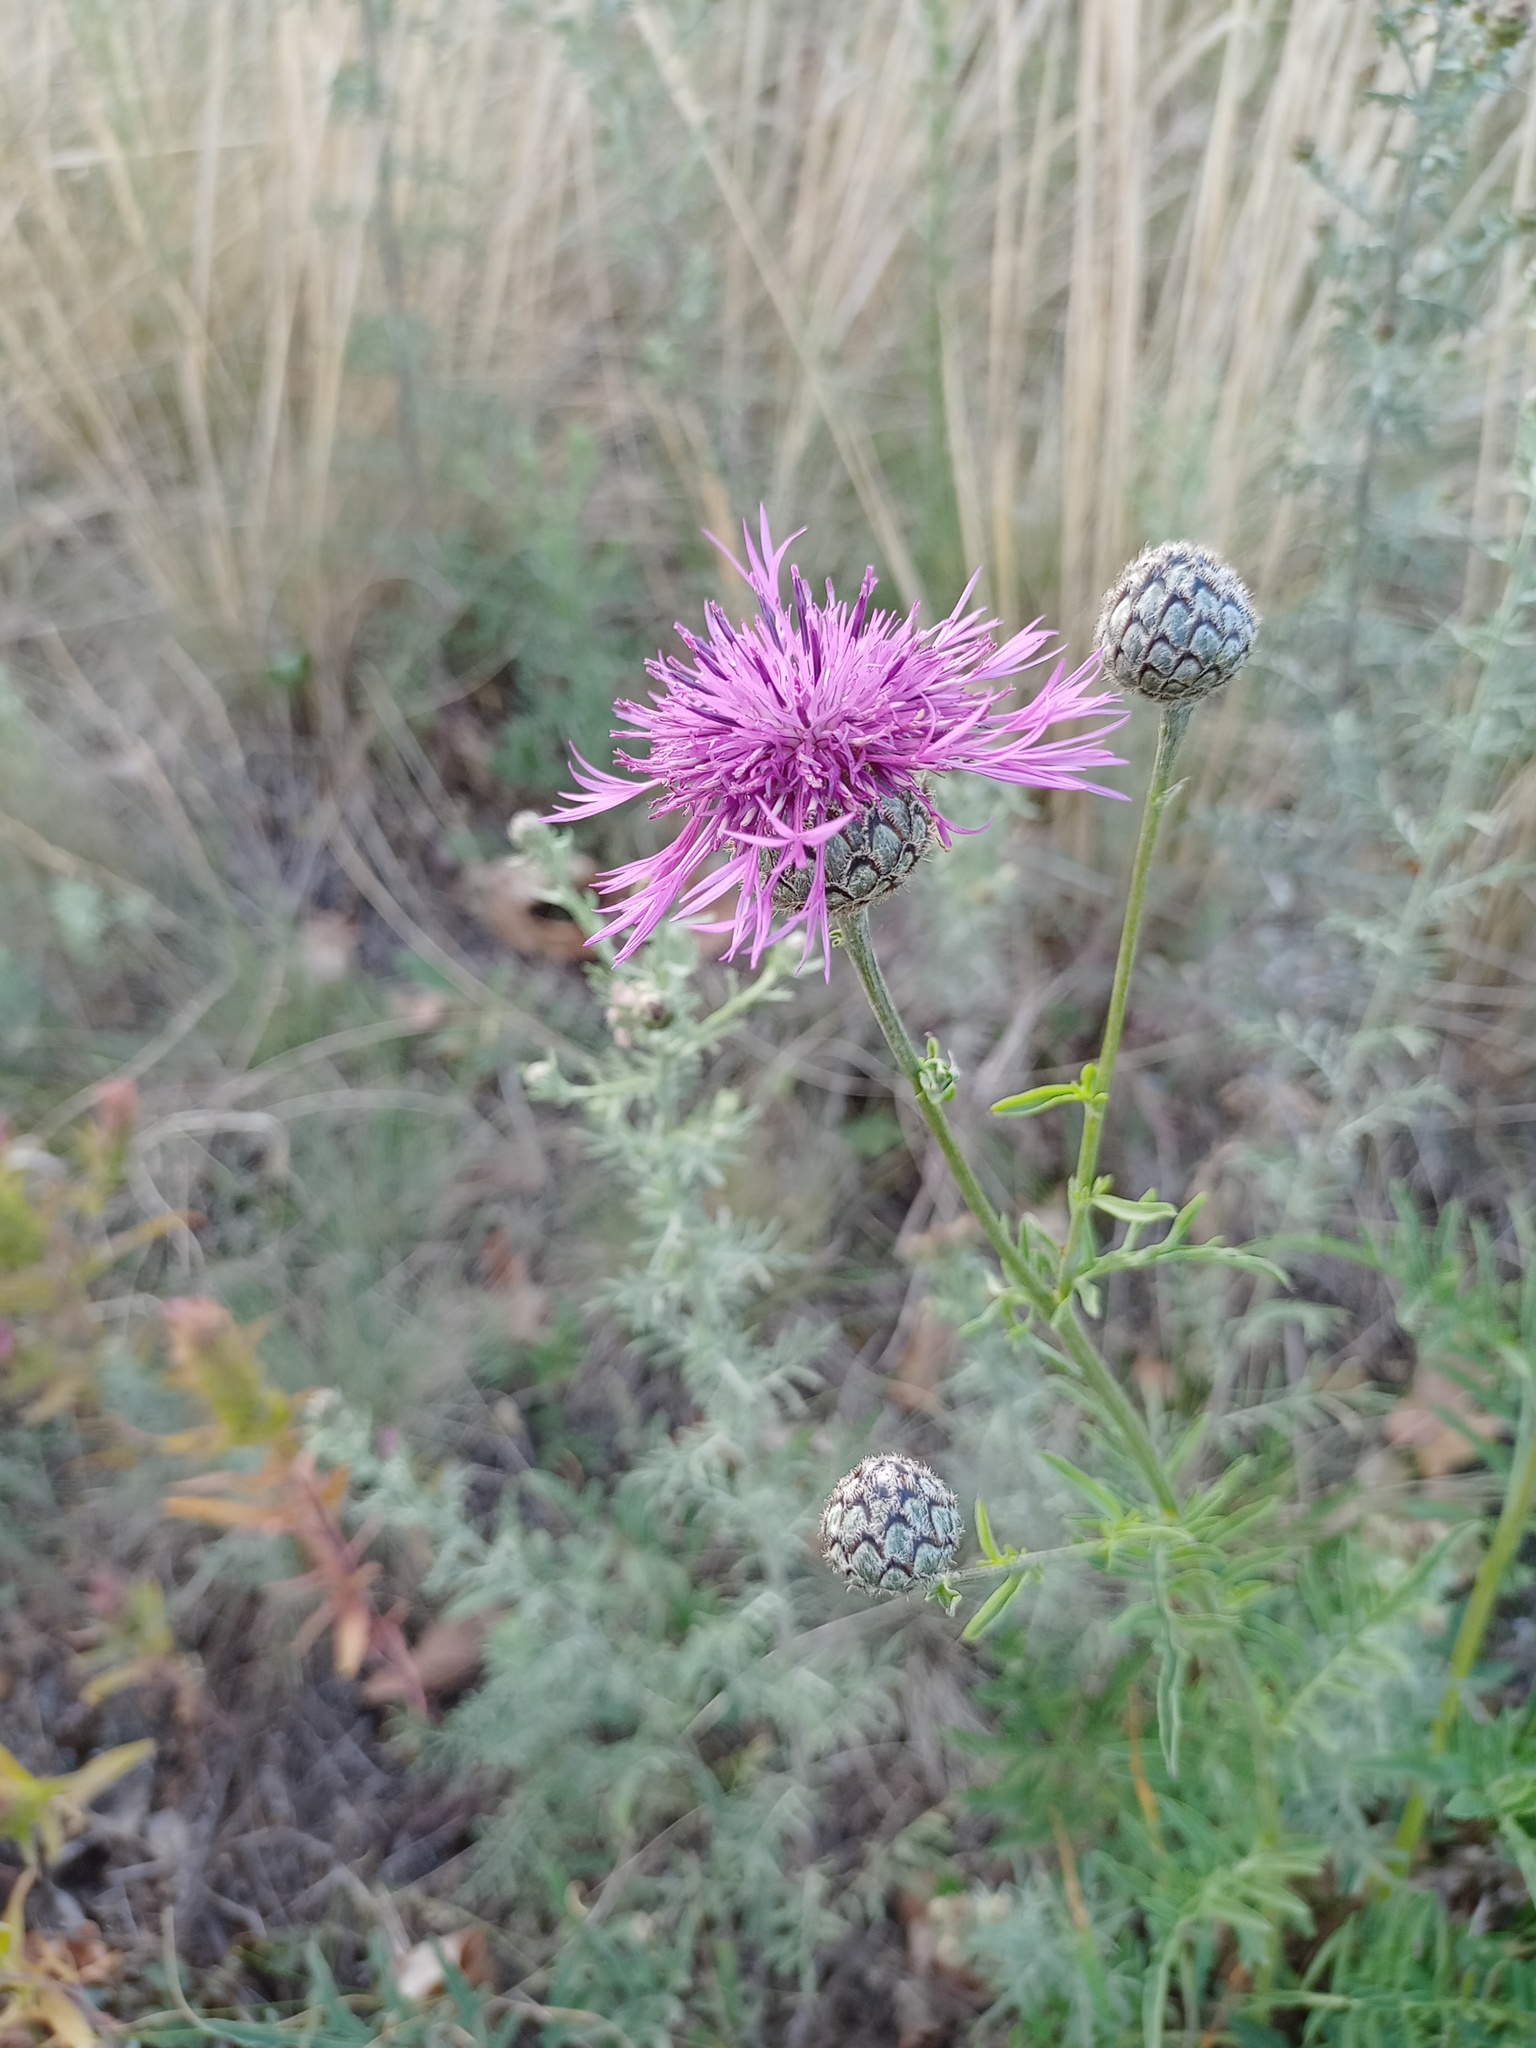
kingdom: Plantae
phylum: Tracheophyta
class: Magnoliopsida
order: Asterales
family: Asteraceae
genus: Centaurea
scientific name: Centaurea scabiosa
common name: Greater knapweed
